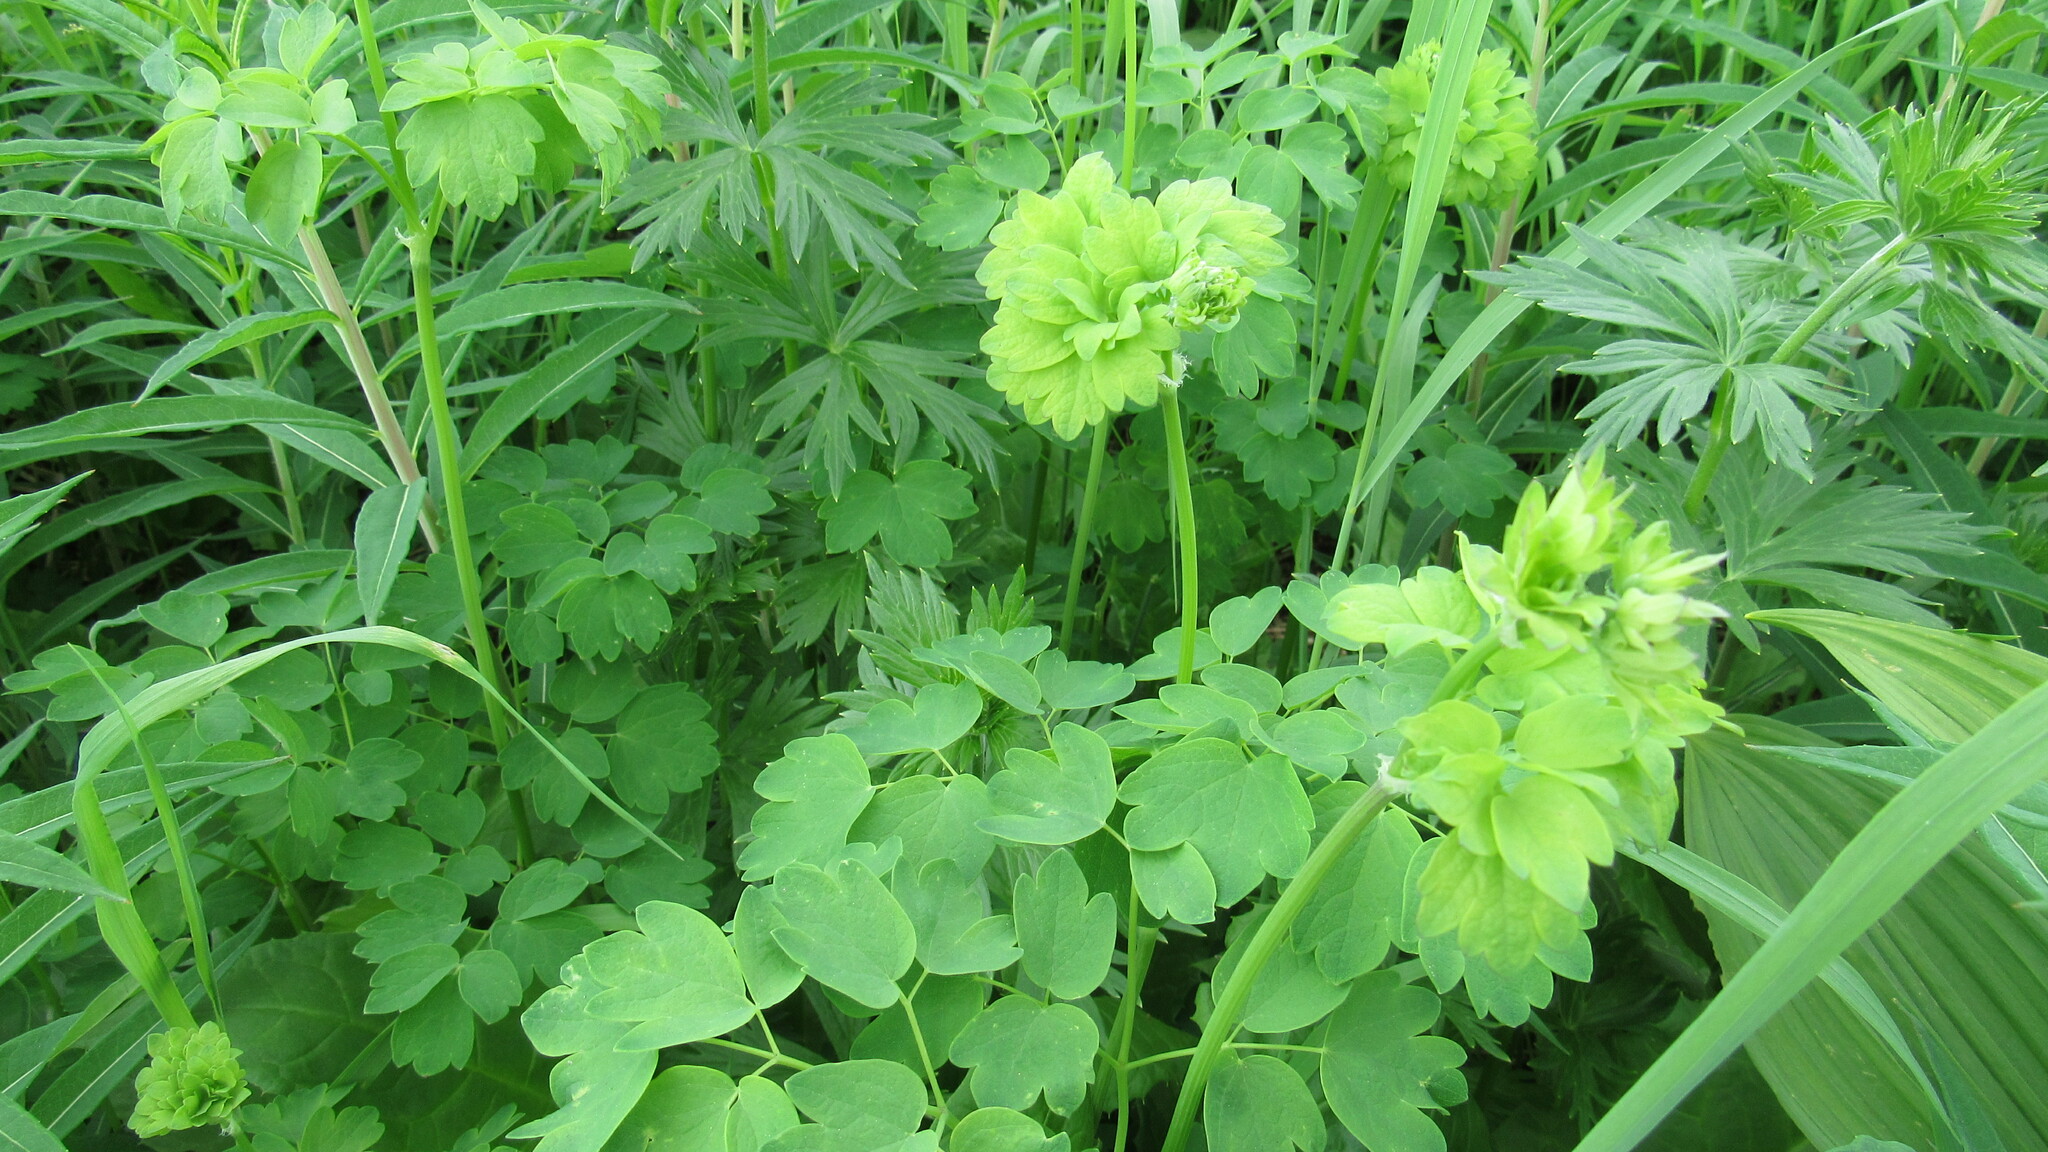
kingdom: Plantae
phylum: Tracheophyta
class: Magnoliopsida
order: Ranunculales
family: Ranunculaceae
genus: Thalictrum
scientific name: Thalictrum minus
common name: Lesser meadow-rue
